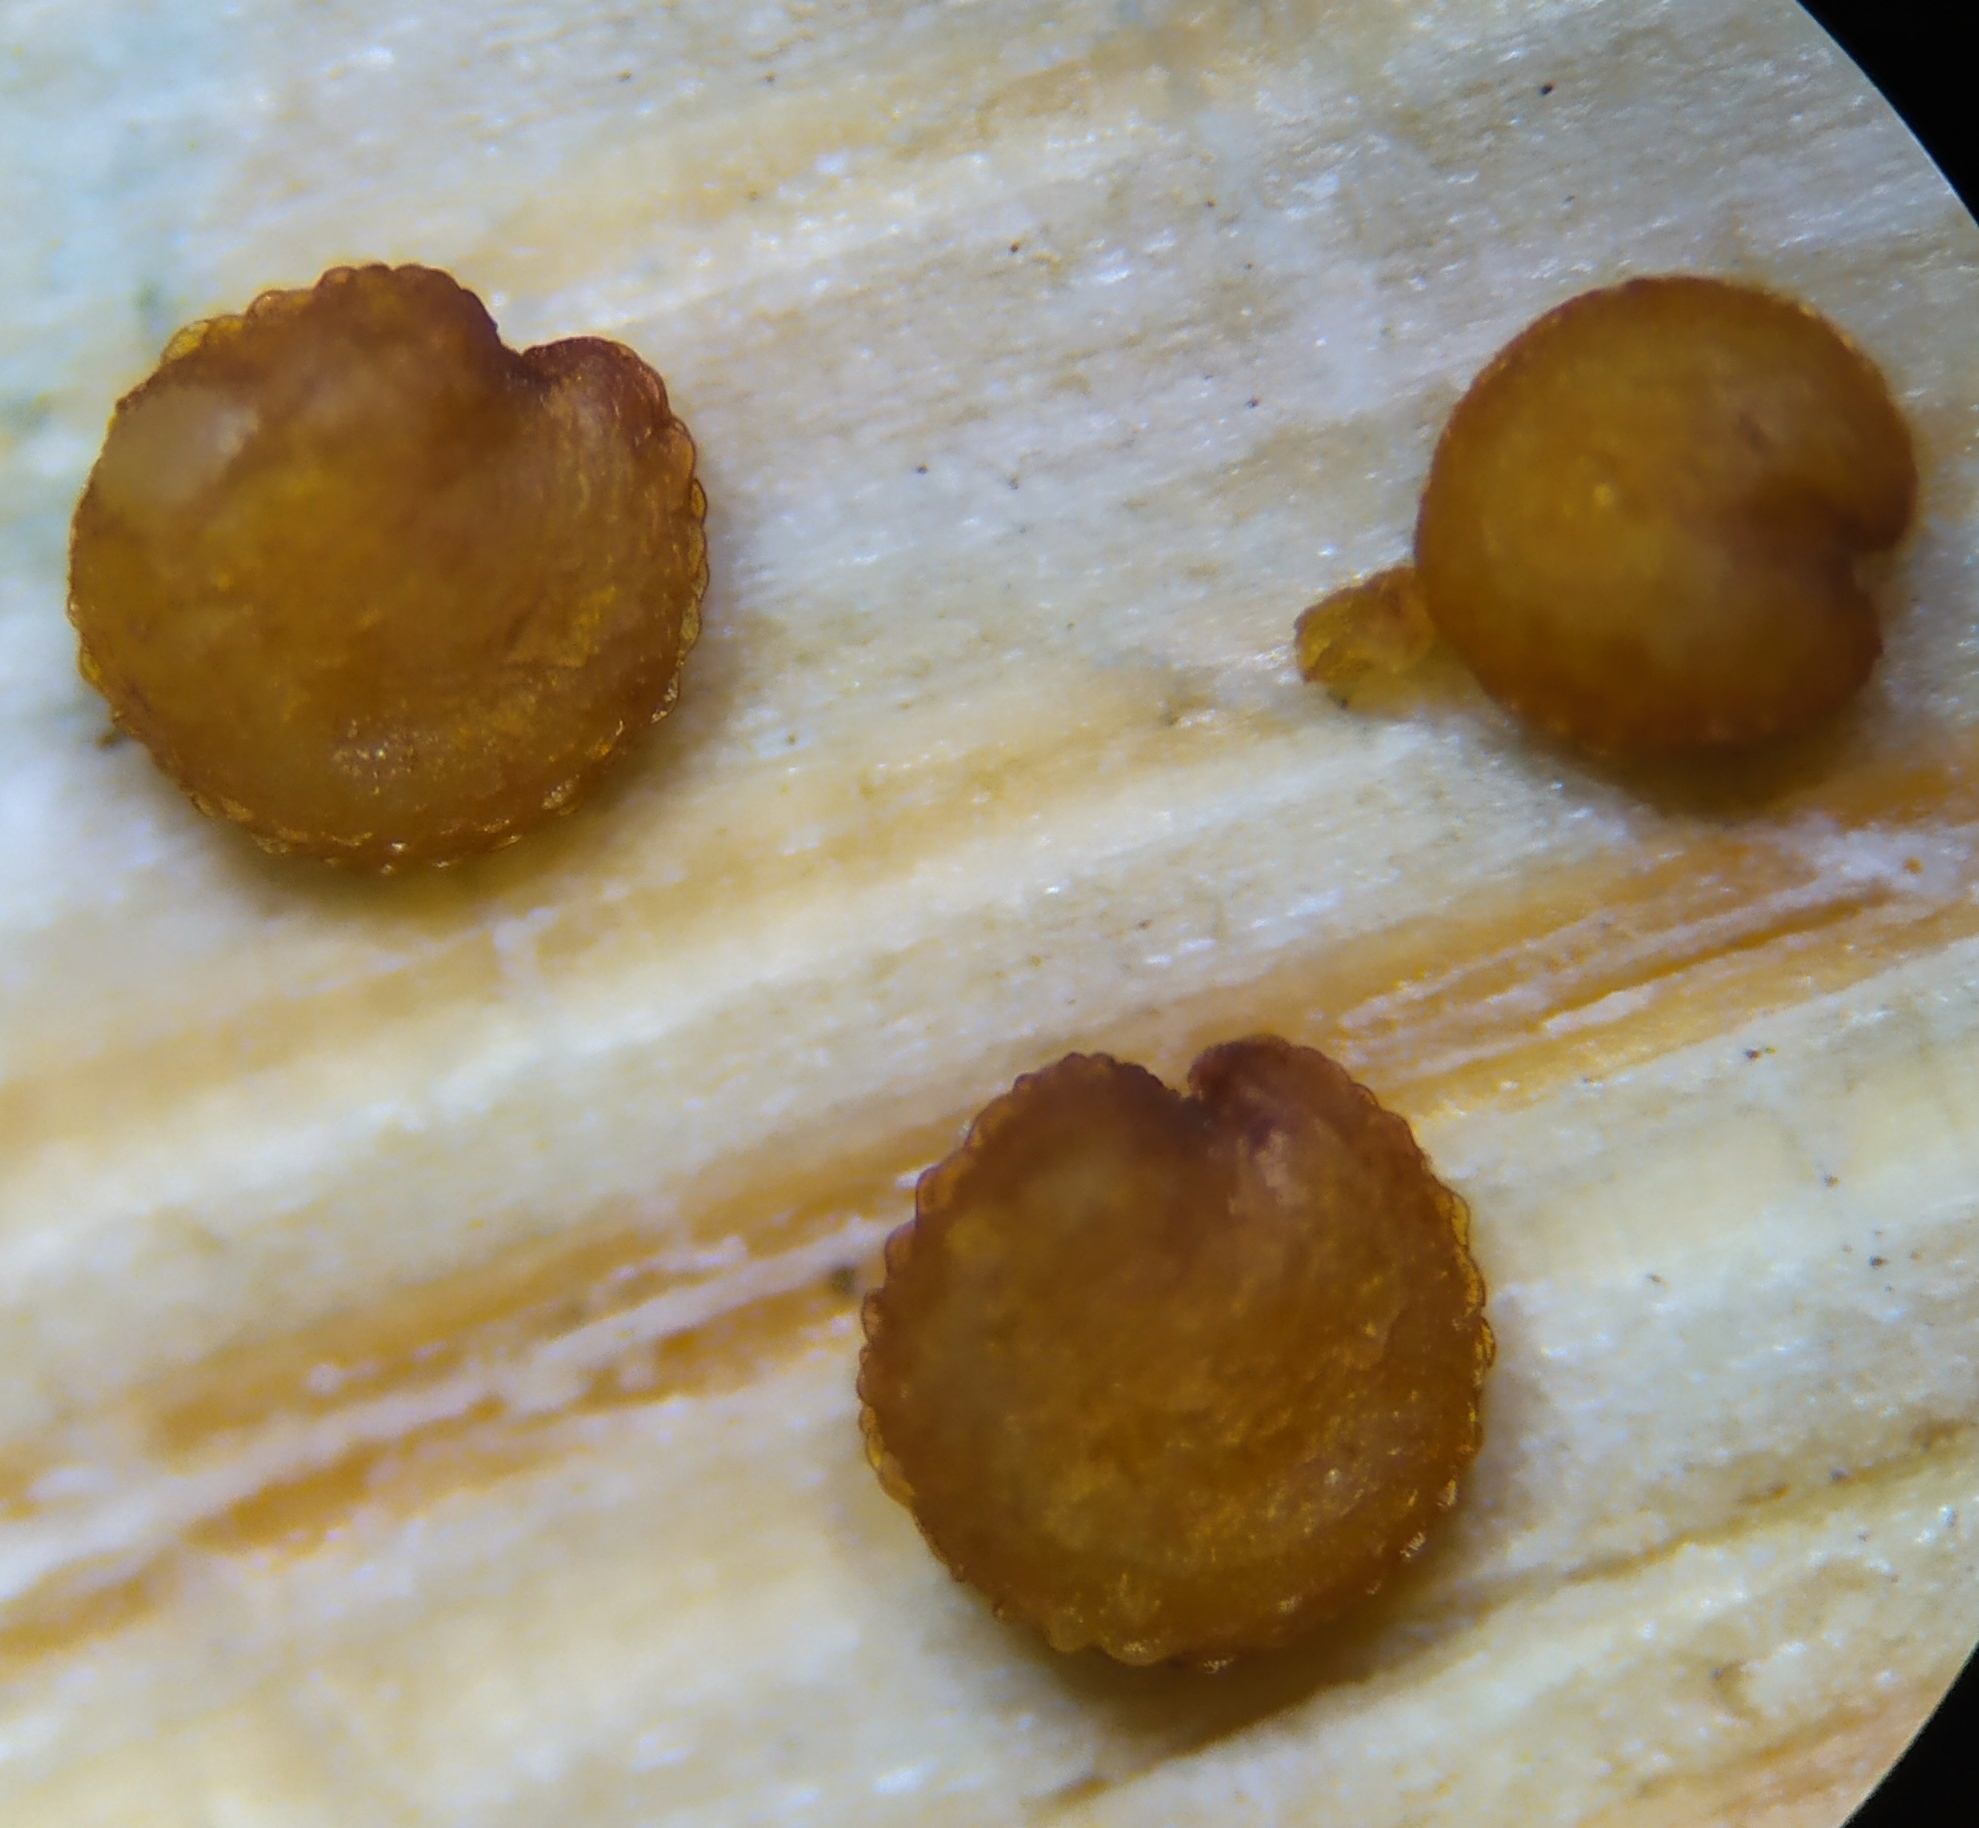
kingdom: Plantae
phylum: Tracheophyta
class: Magnoliopsida
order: Caryophyllales
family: Caryophyllaceae
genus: Stellaria
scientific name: Stellaria media
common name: Common chickweed
